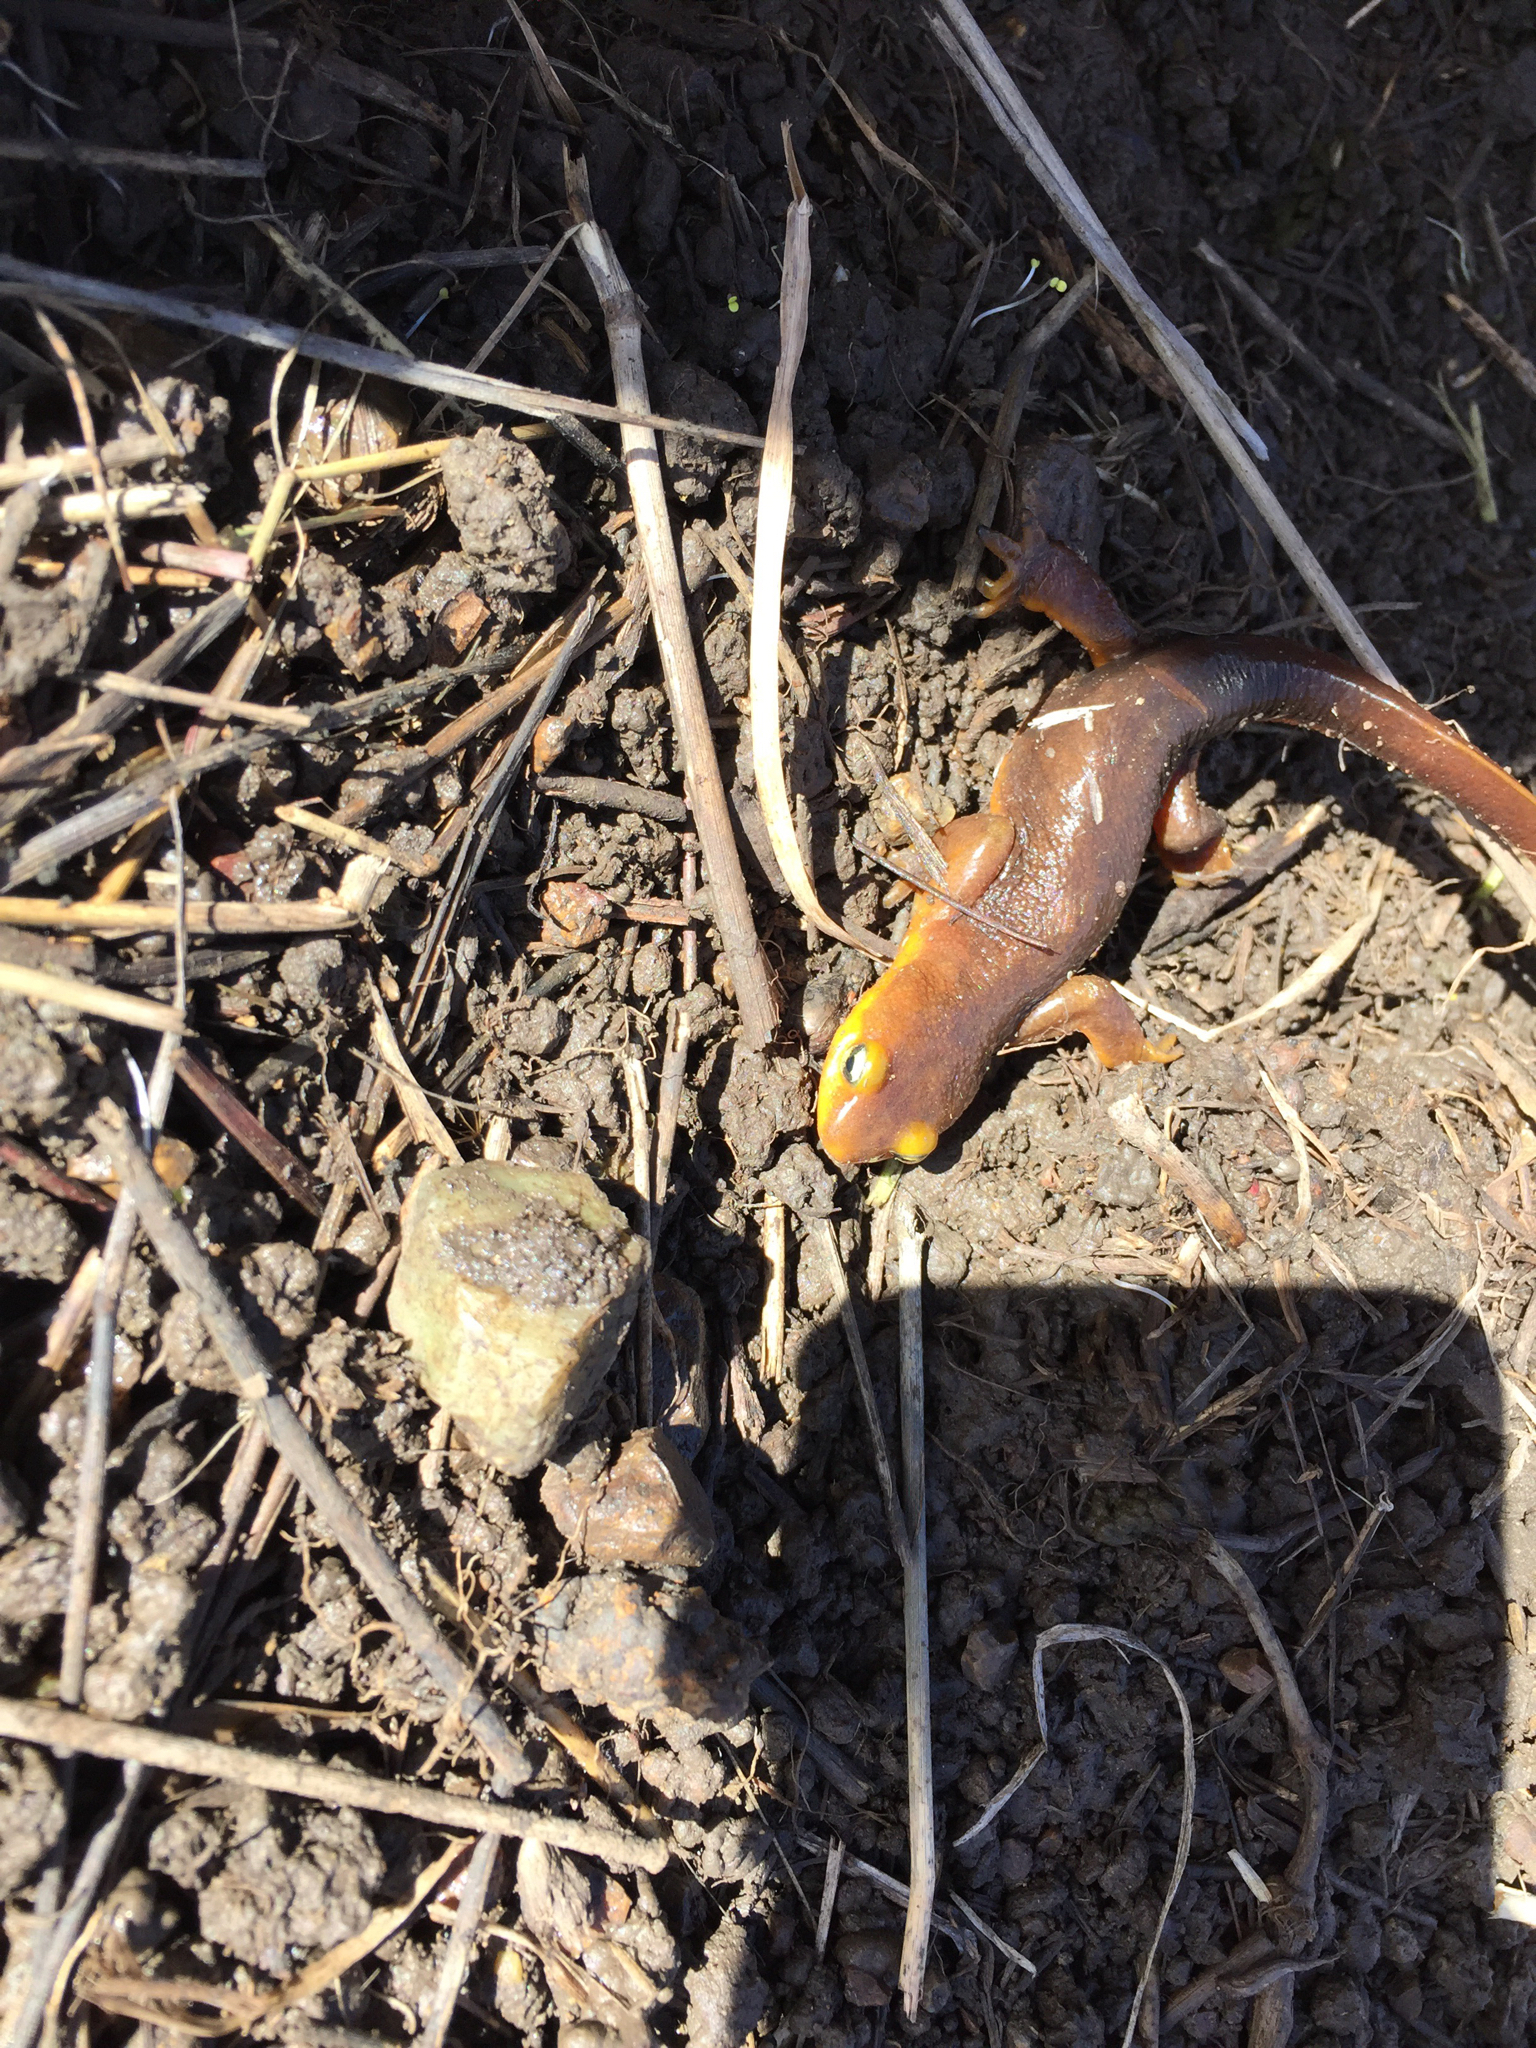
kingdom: Animalia
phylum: Chordata
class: Amphibia
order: Caudata
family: Salamandridae
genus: Taricha
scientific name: Taricha torosa
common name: California newt
